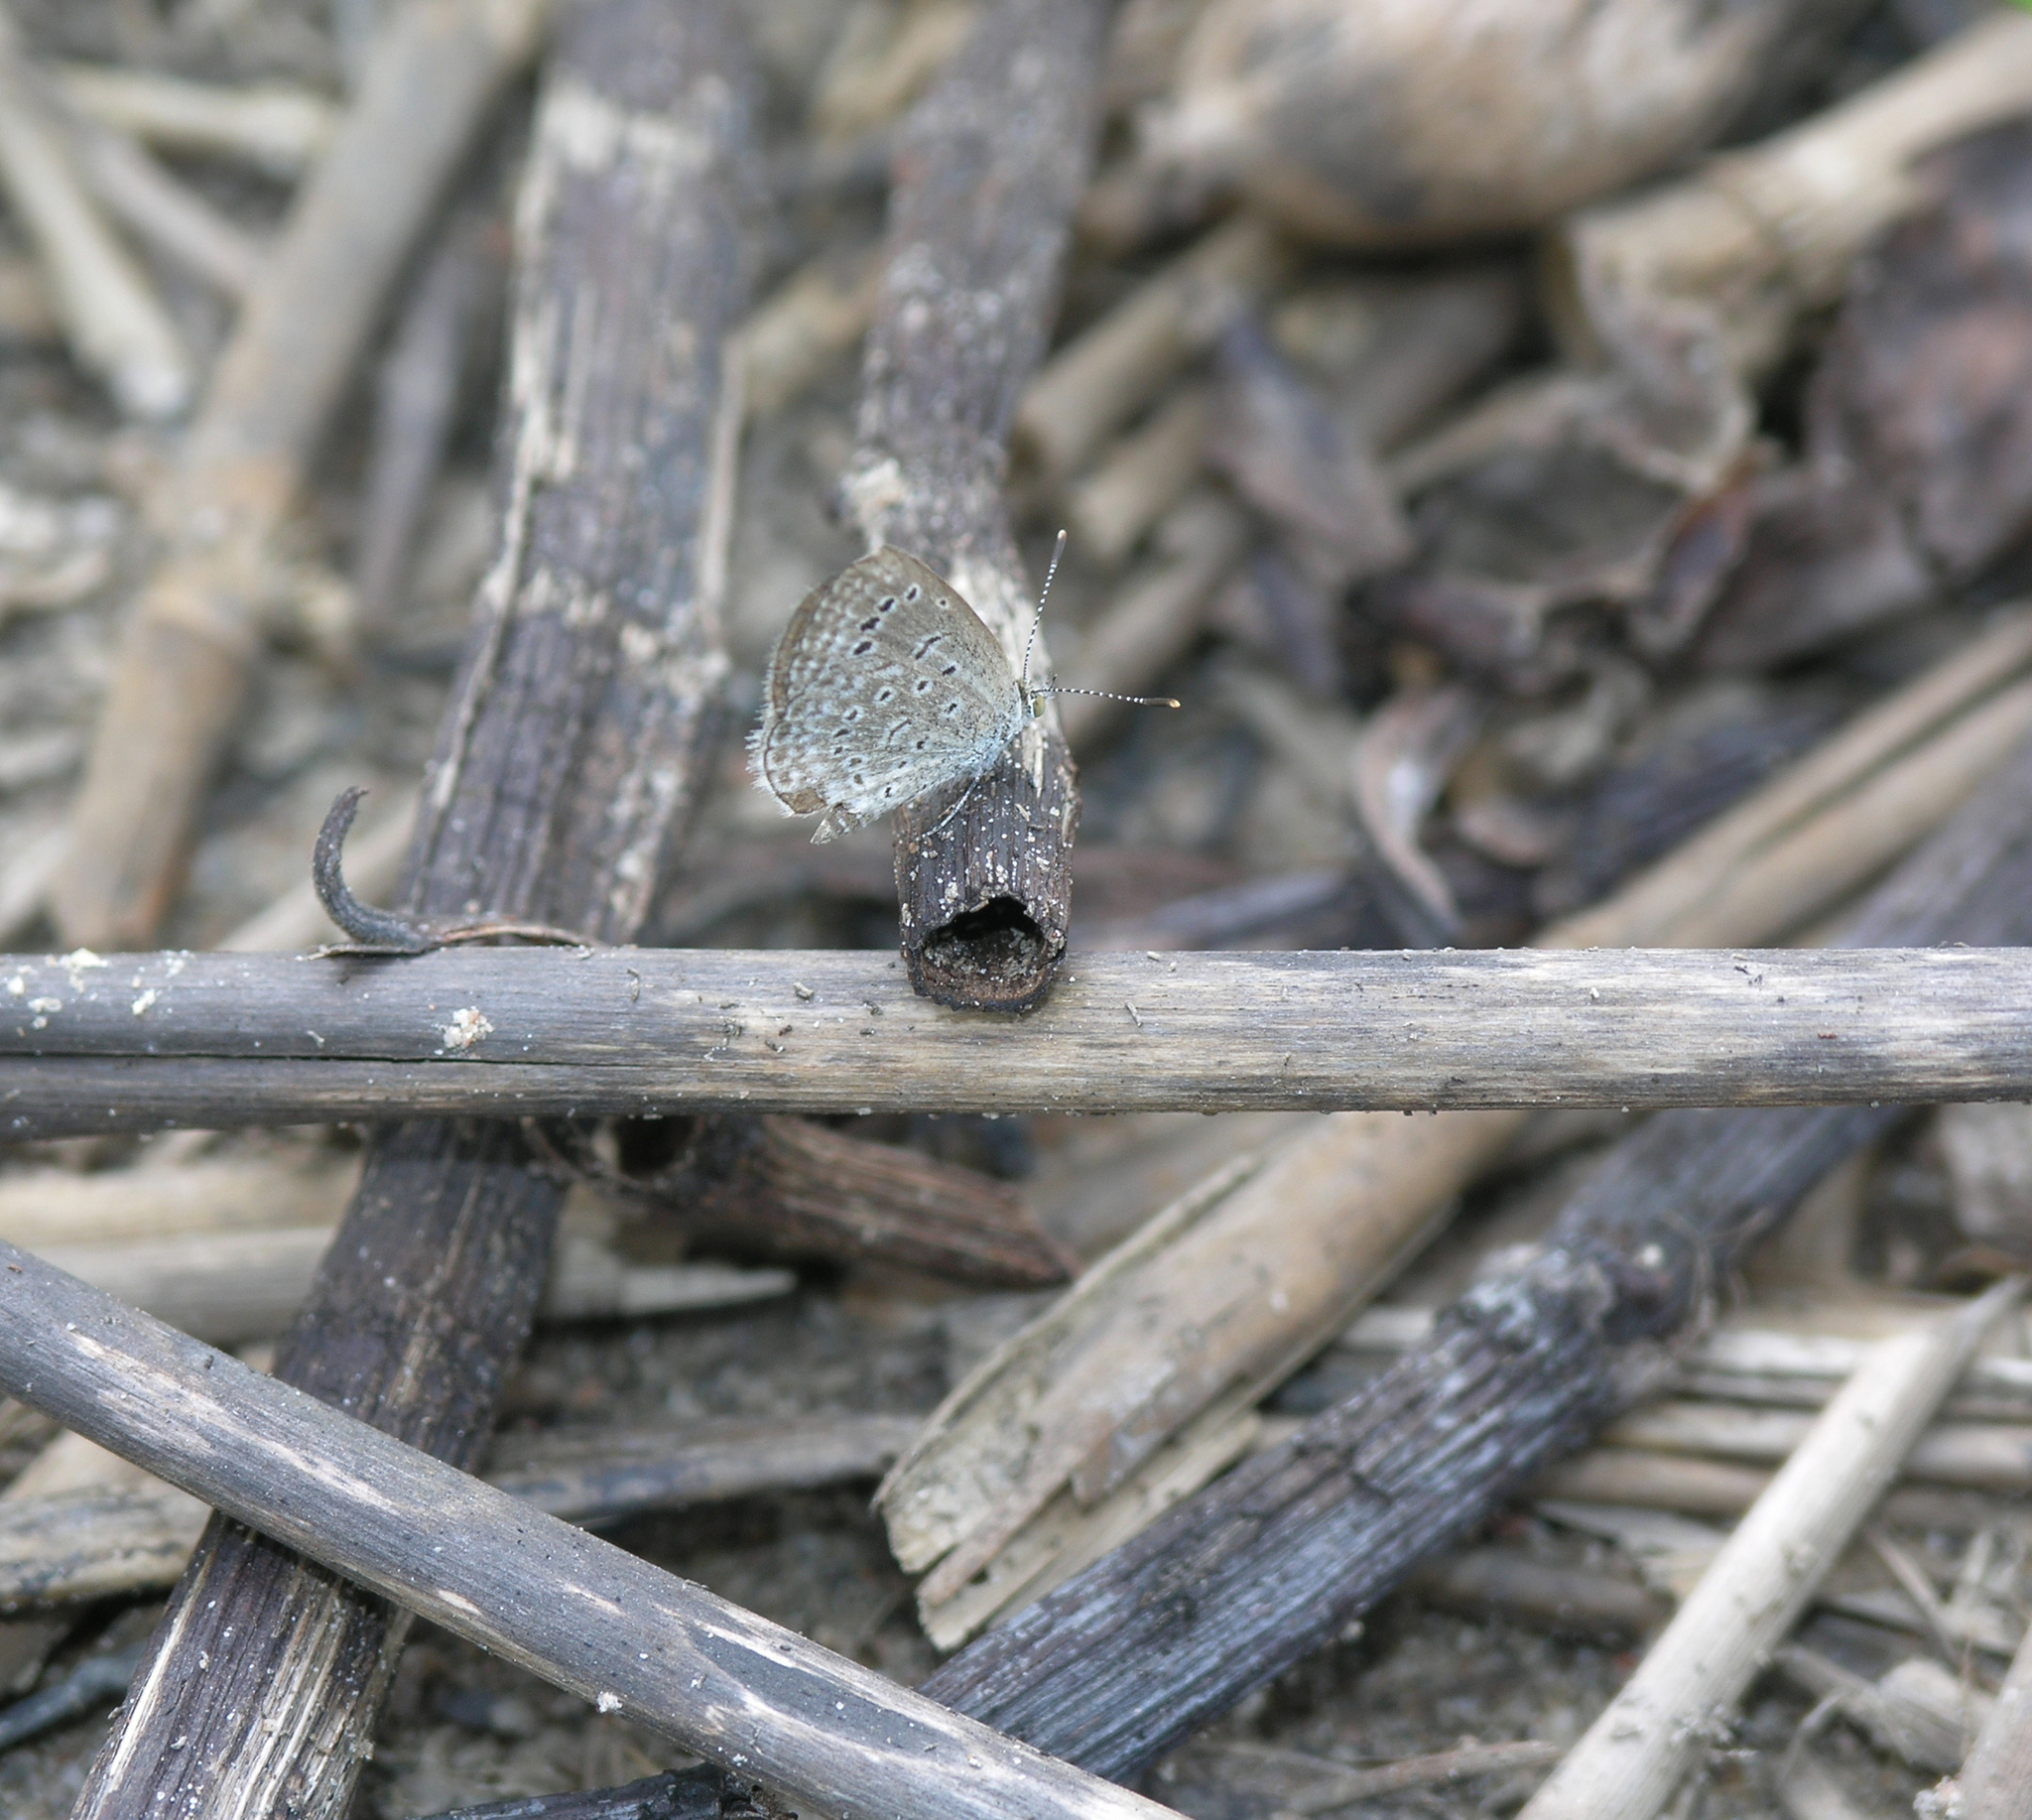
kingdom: Animalia
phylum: Arthropoda
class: Insecta
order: Lepidoptera
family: Lycaenidae
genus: Zizeeria
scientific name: Zizeeria karsandra
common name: Dark grass blue
